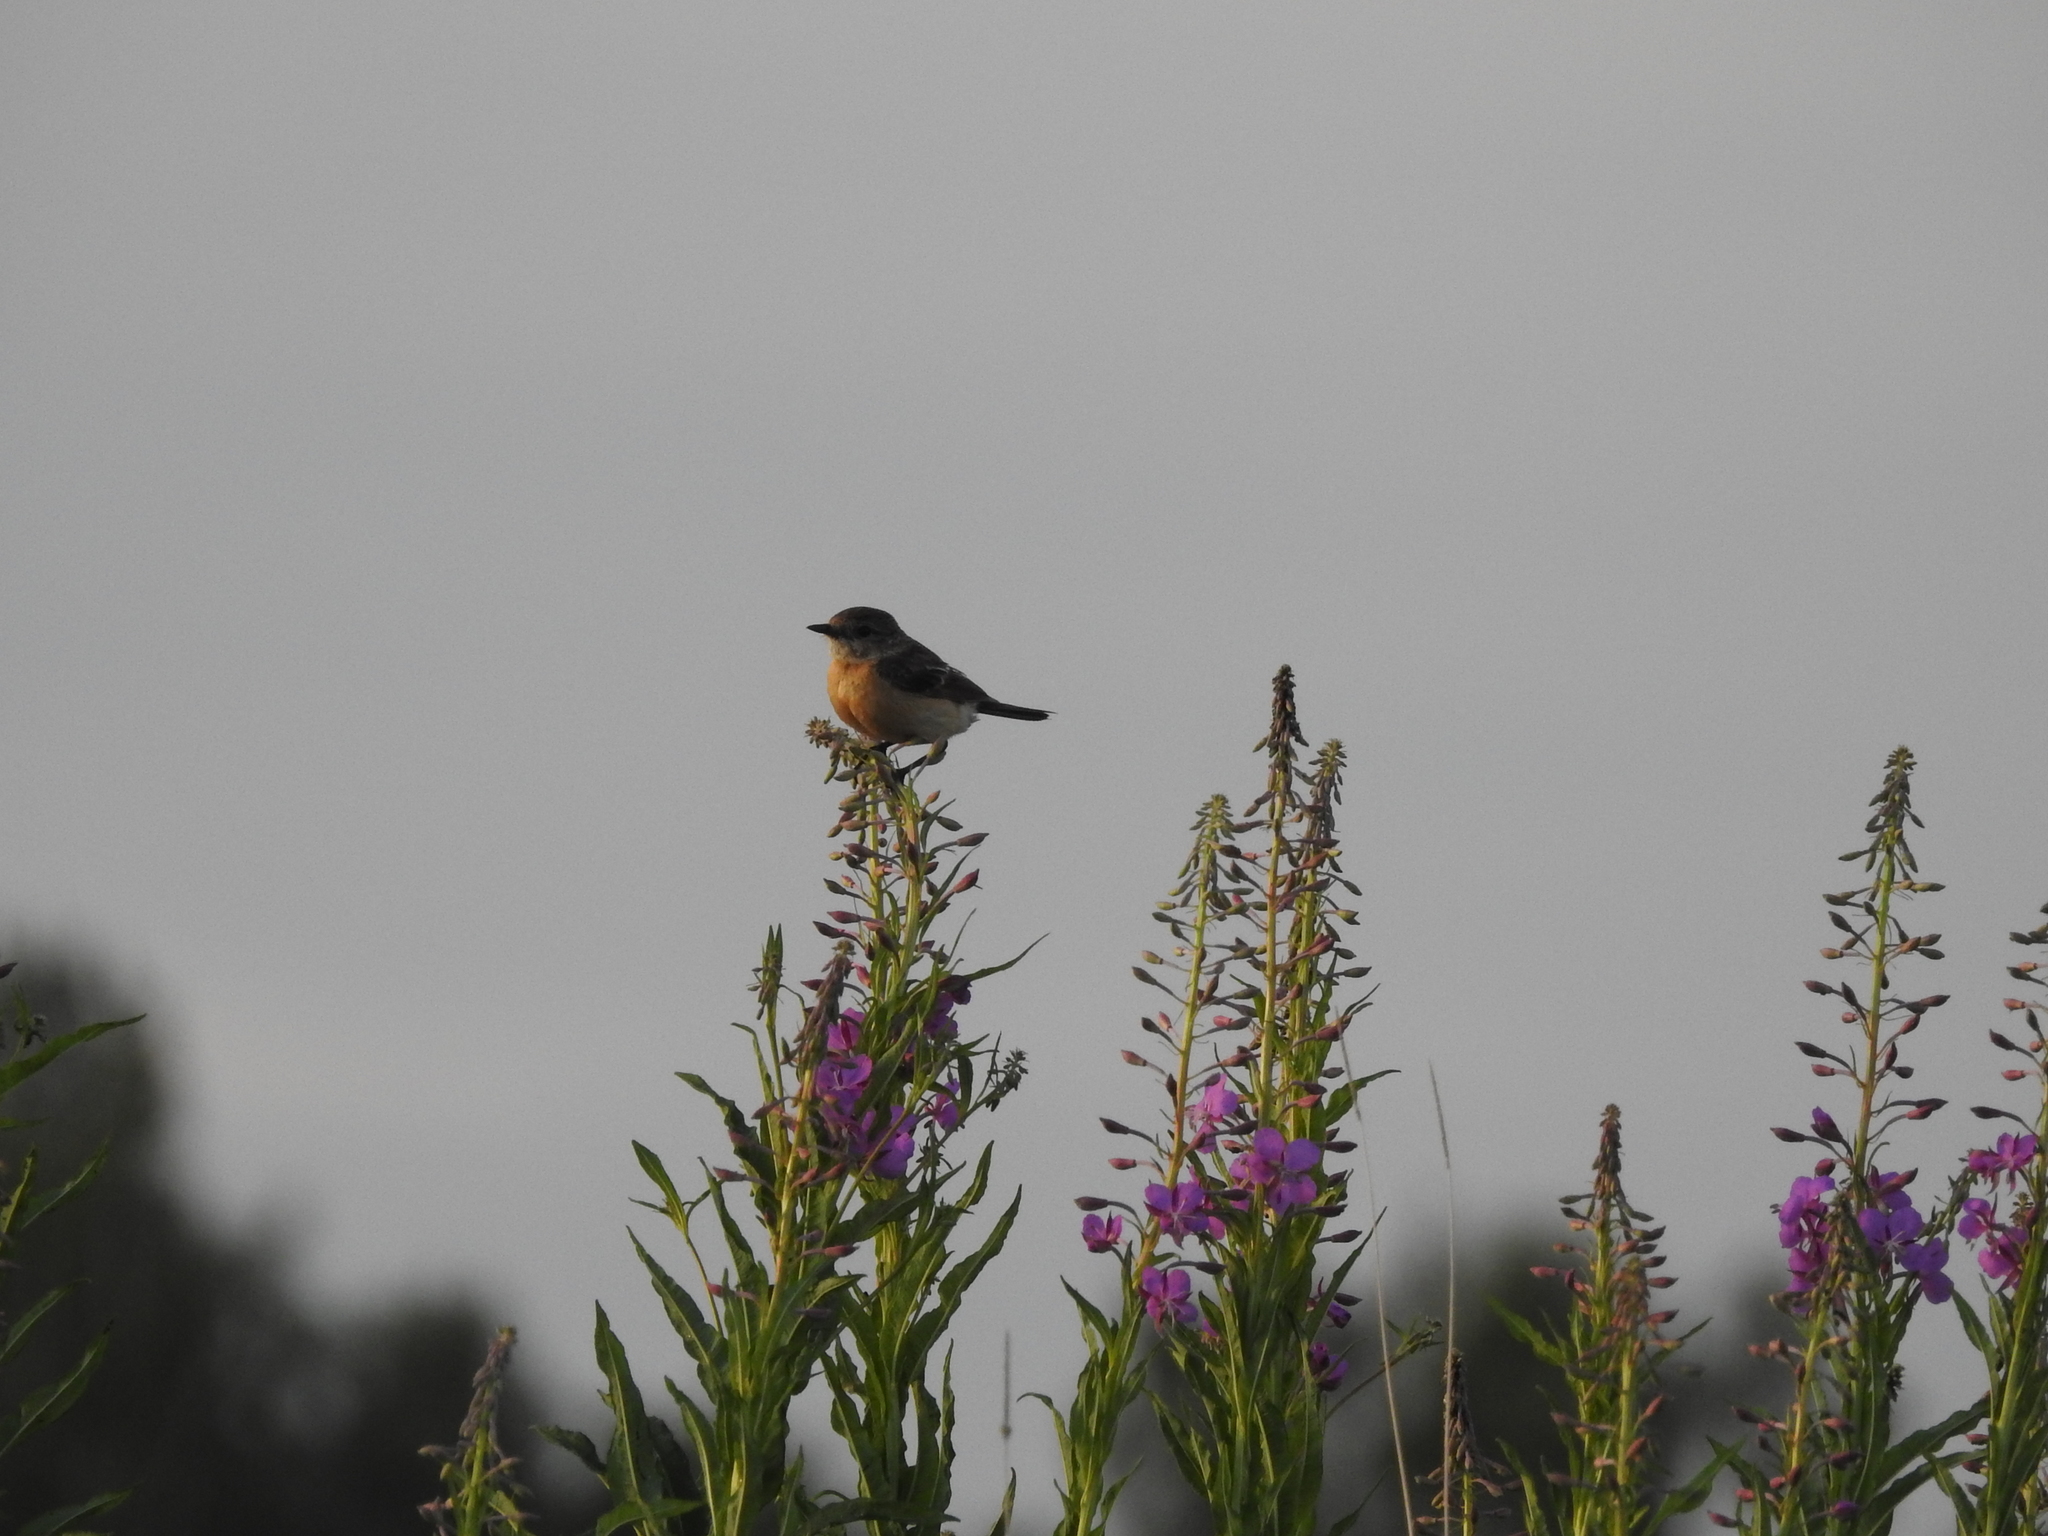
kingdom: Animalia
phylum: Chordata
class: Aves
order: Passeriformes
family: Muscicapidae
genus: Saxicola
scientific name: Saxicola maurus
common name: Siberian stonechat
